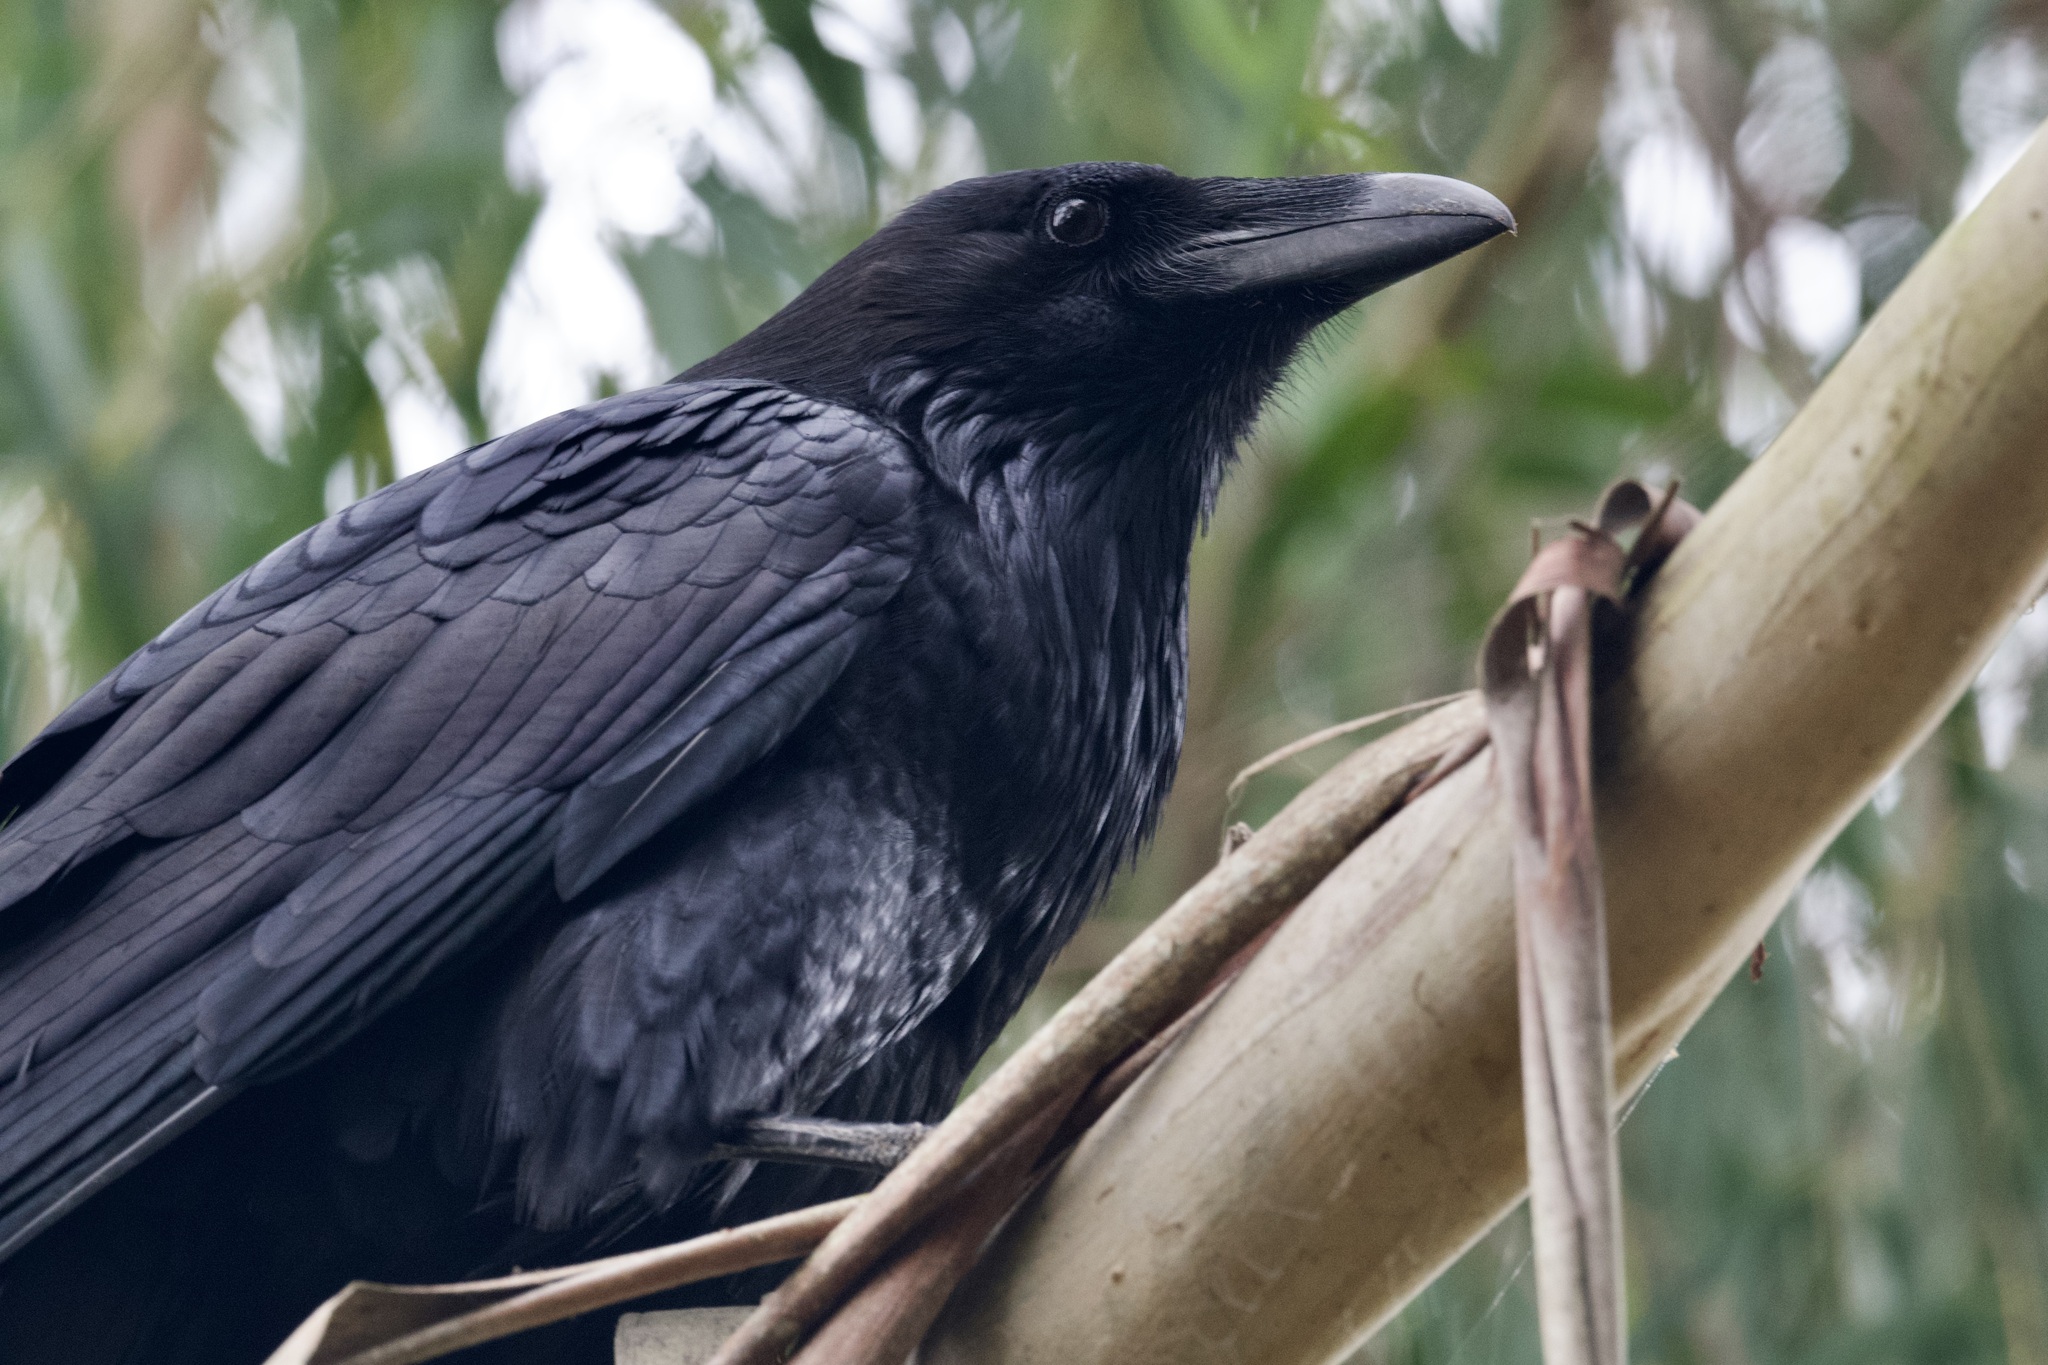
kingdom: Animalia
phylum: Chordata
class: Aves
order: Passeriformes
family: Corvidae
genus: Corvus
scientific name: Corvus corax
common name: Common raven
